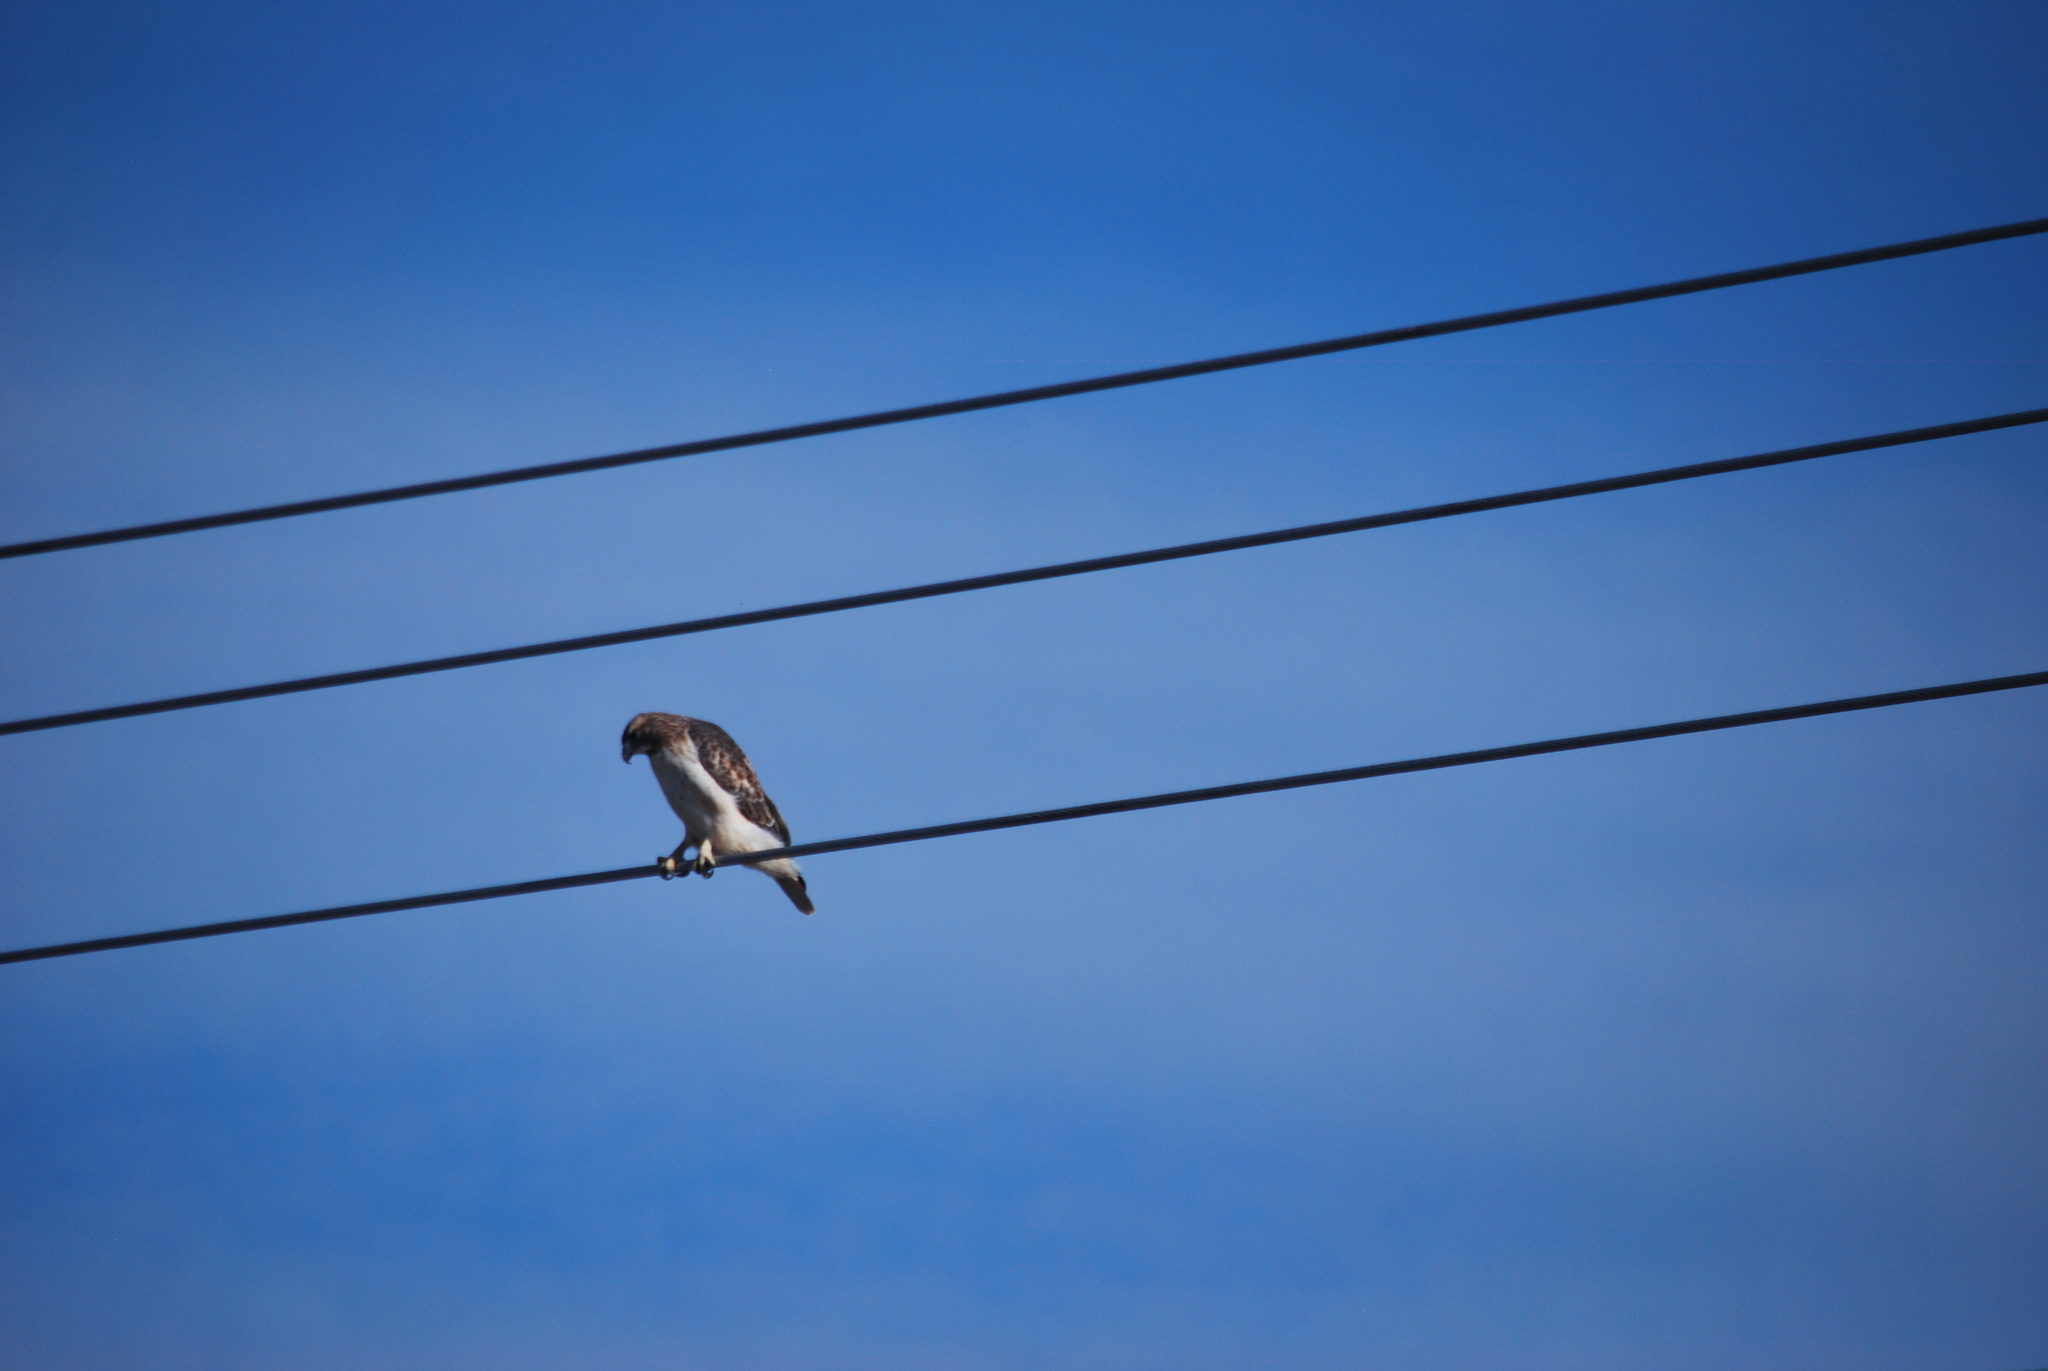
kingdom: Animalia
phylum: Chordata
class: Aves
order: Accipitriformes
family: Accipitridae
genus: Buteo
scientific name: Buteo jamaicensis
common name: Red-tailed hawk
